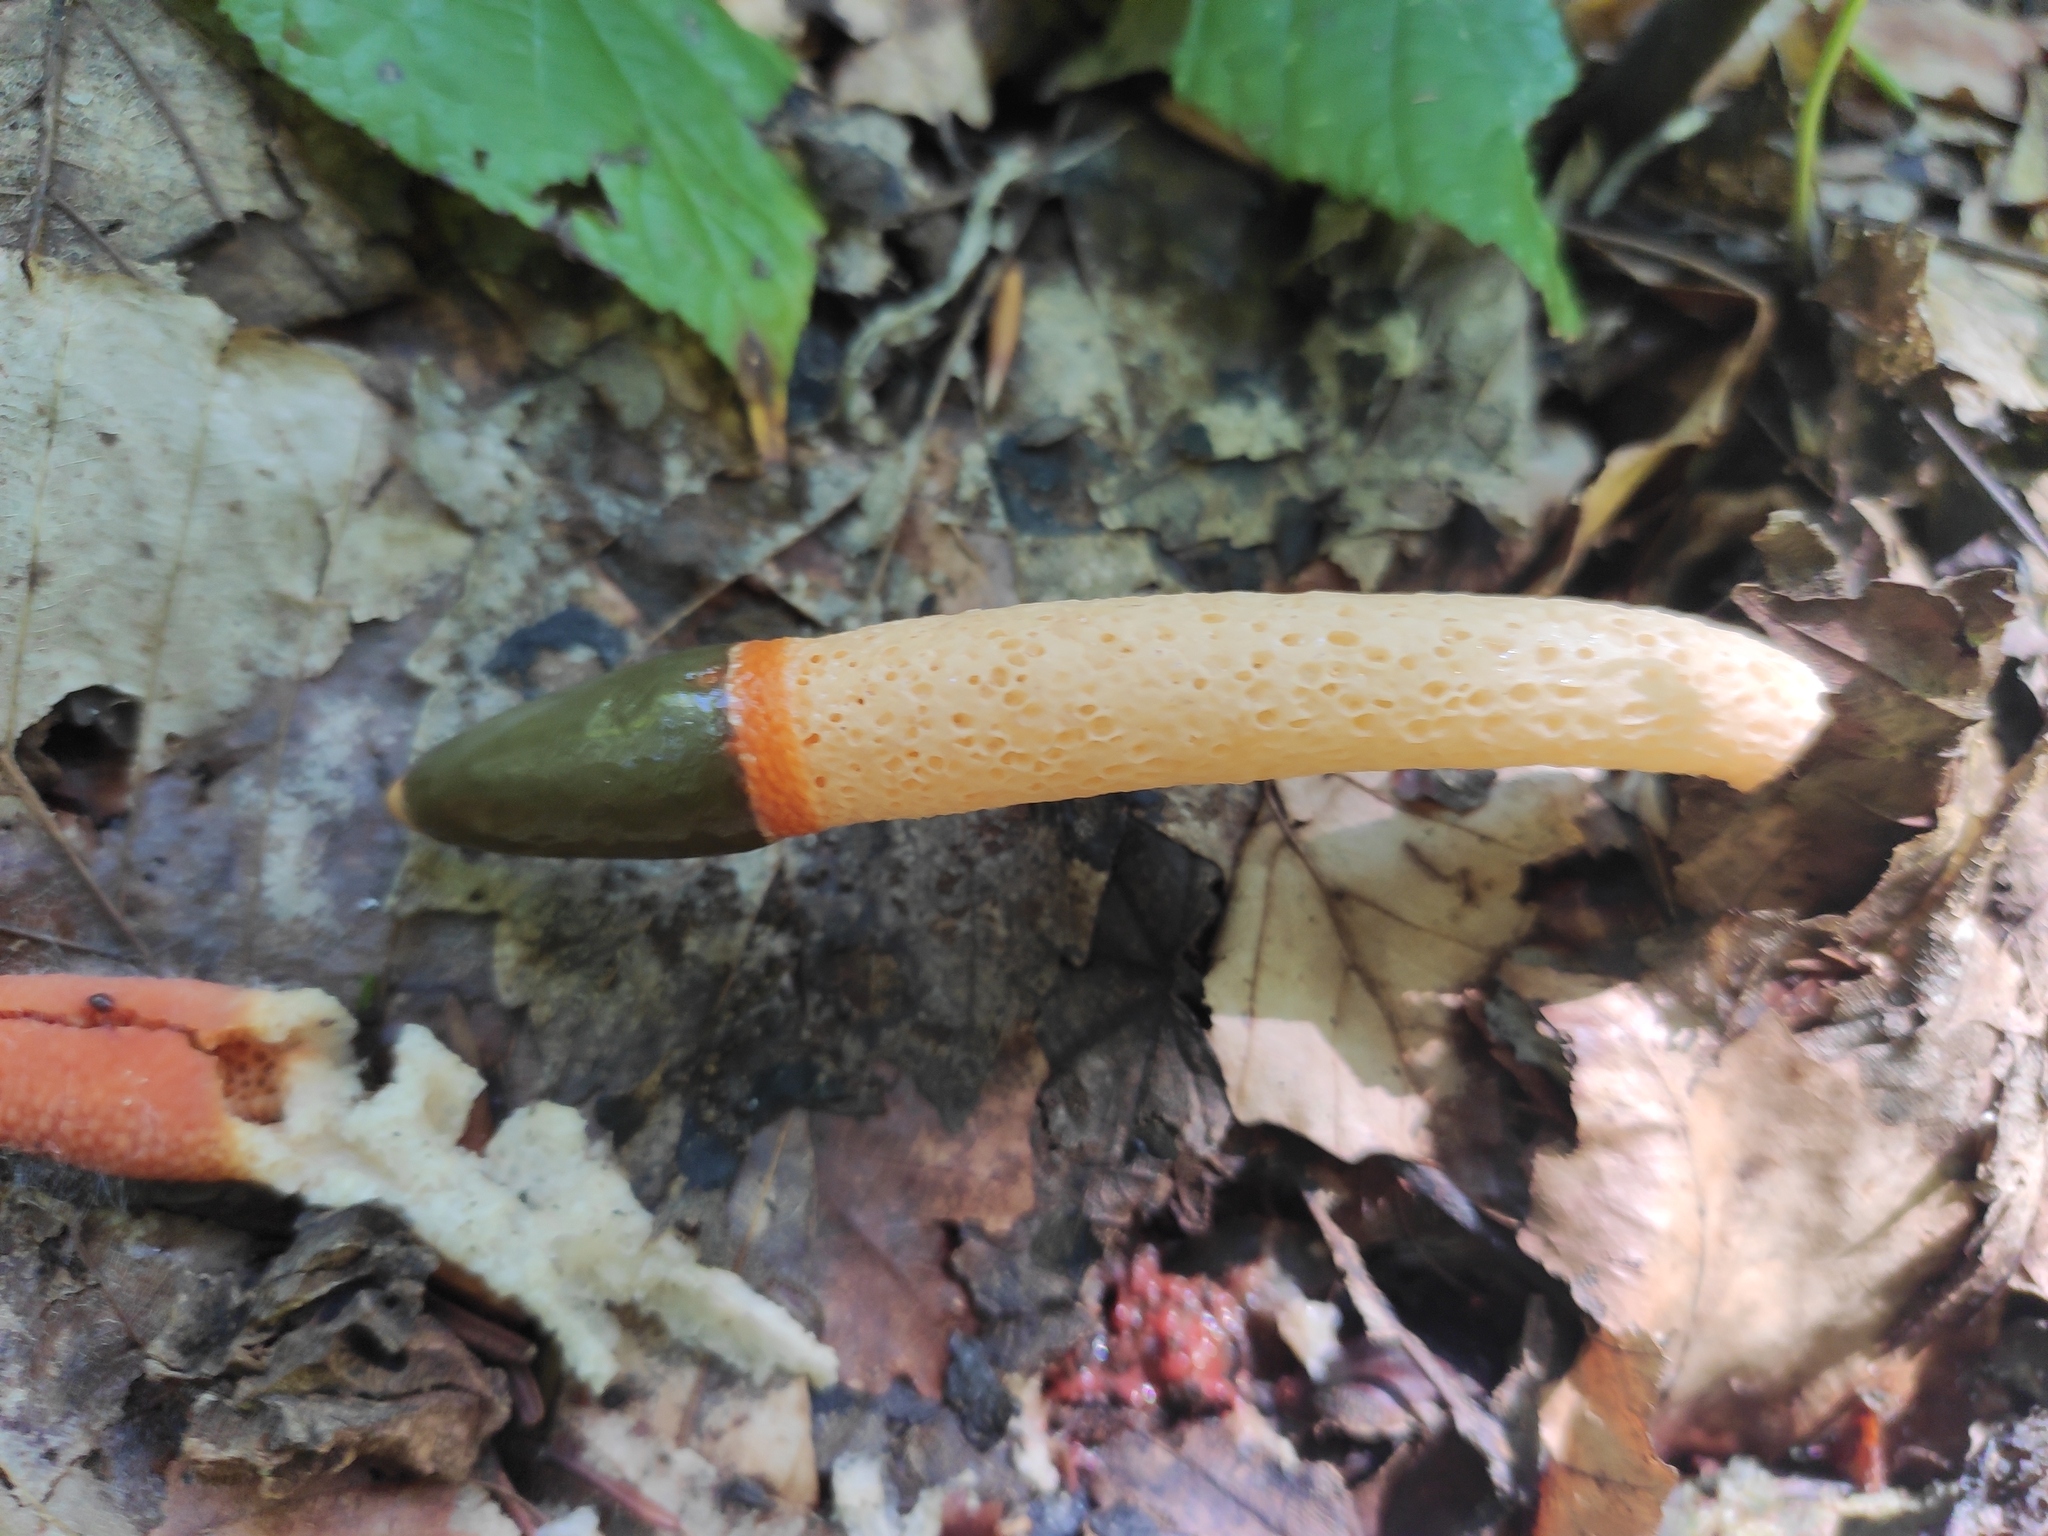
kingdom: Fungi
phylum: Basidiomycota
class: Agaricomycetes
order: Phallales
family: Phallaceae
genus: Mutinus
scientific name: Mutinus caninus
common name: Dog stinkhorn
